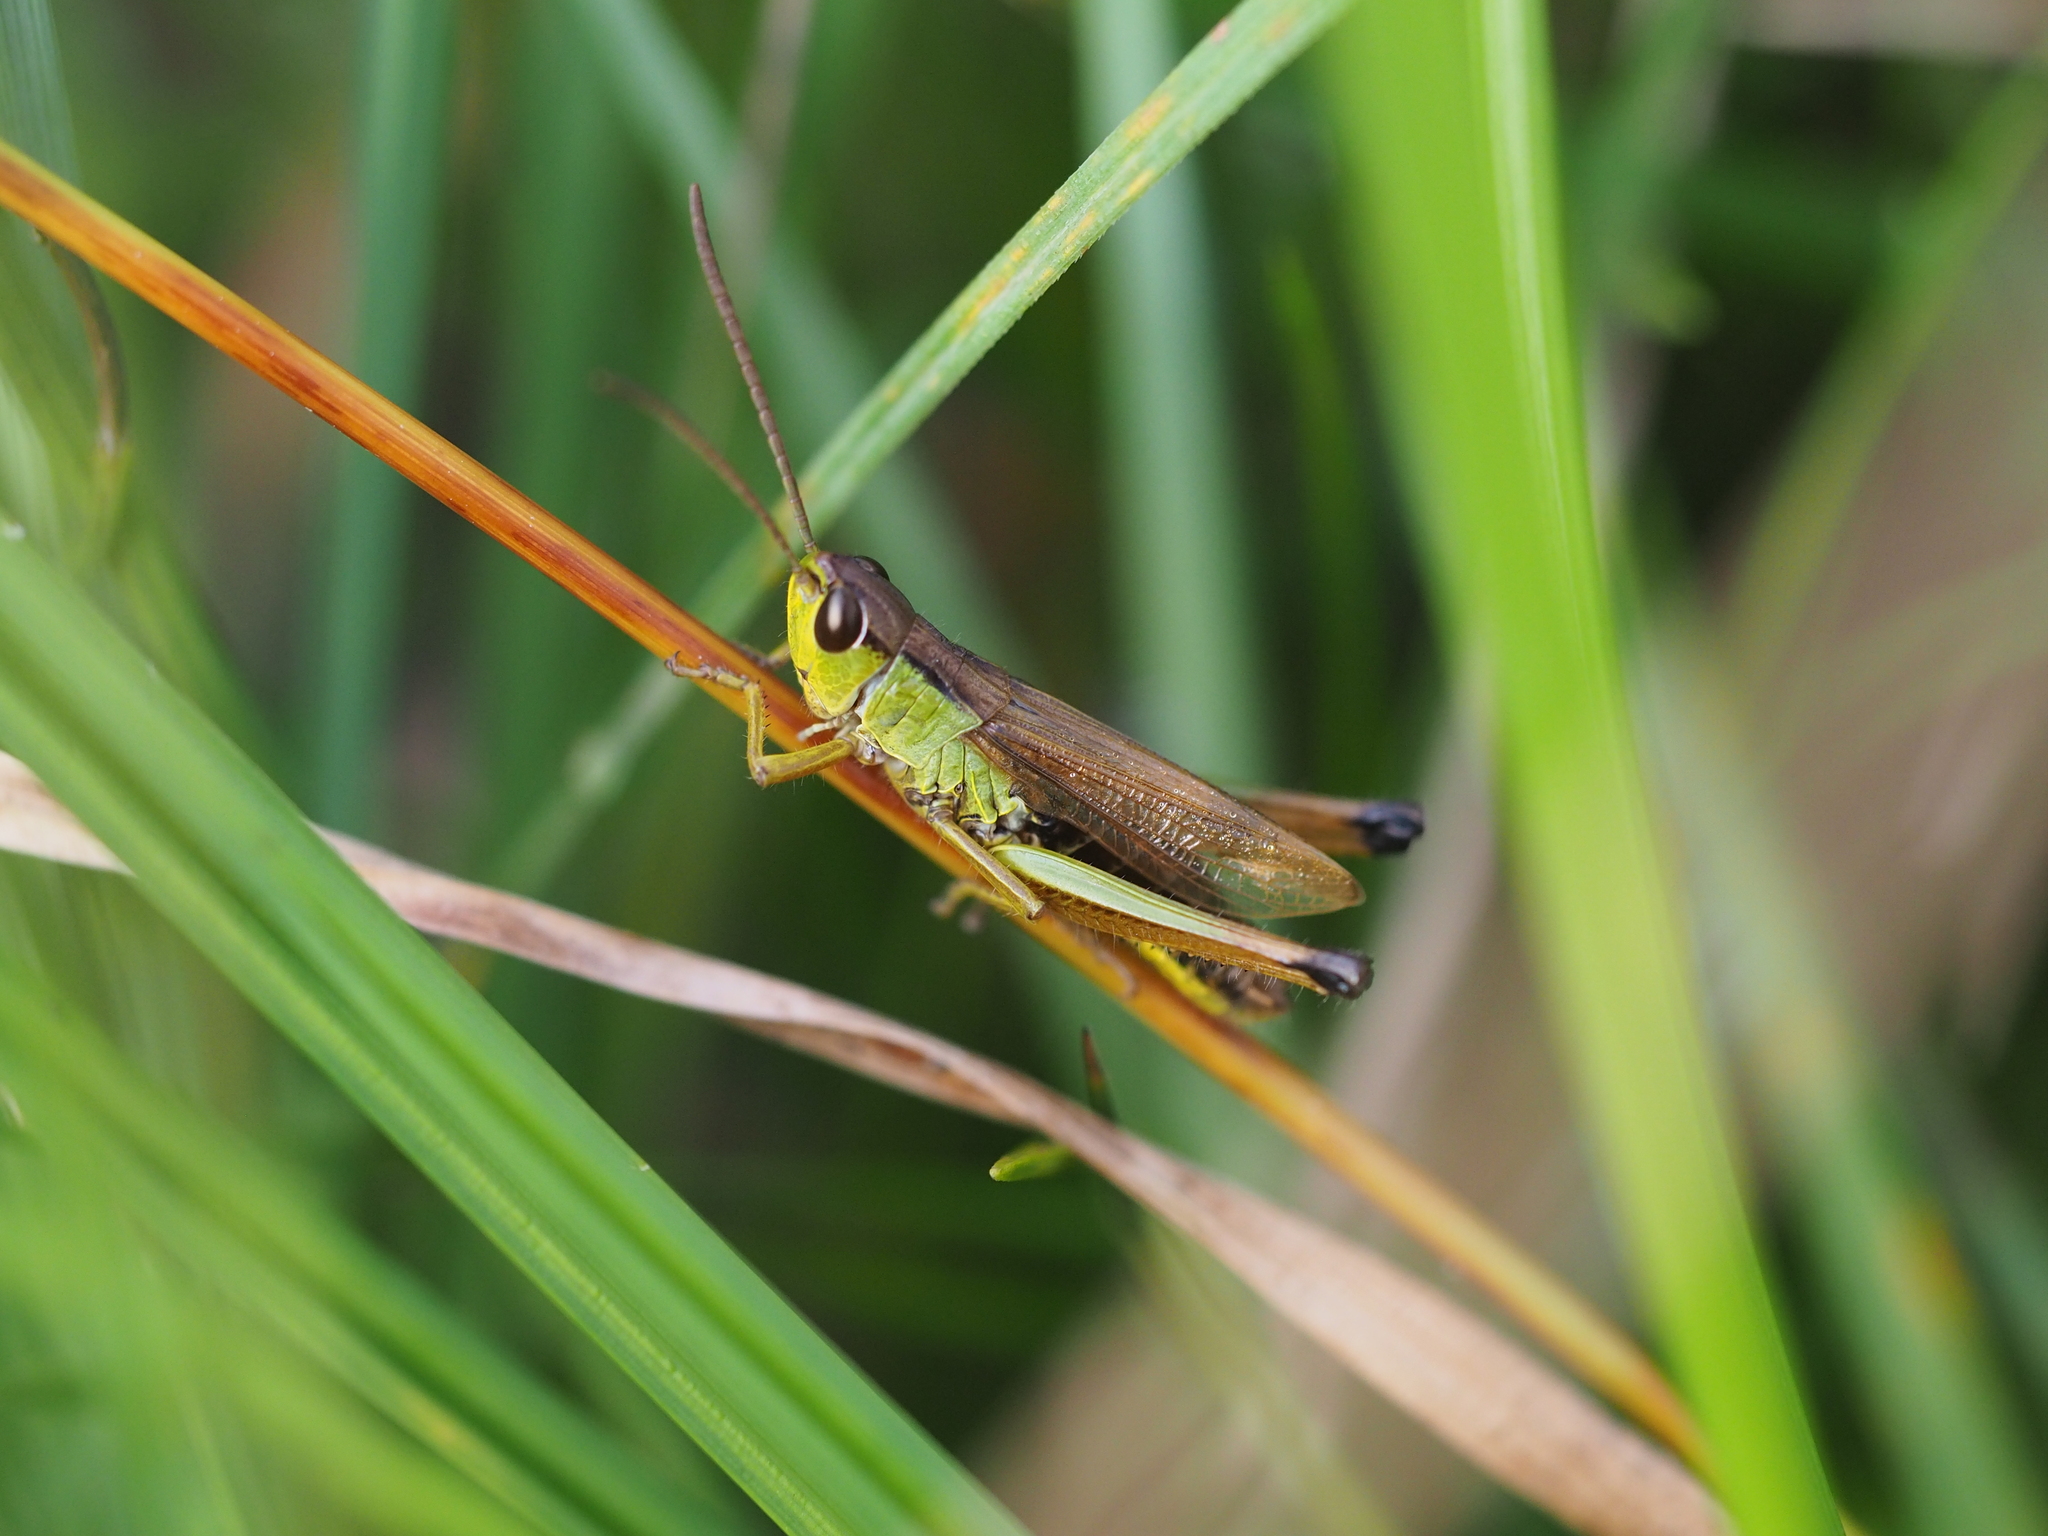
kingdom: Animalia
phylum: Arthropoda
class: Insecta
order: Orthoptera
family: Acrididae
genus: Pseudochorthippus
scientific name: Pseudochorthippus montanus
